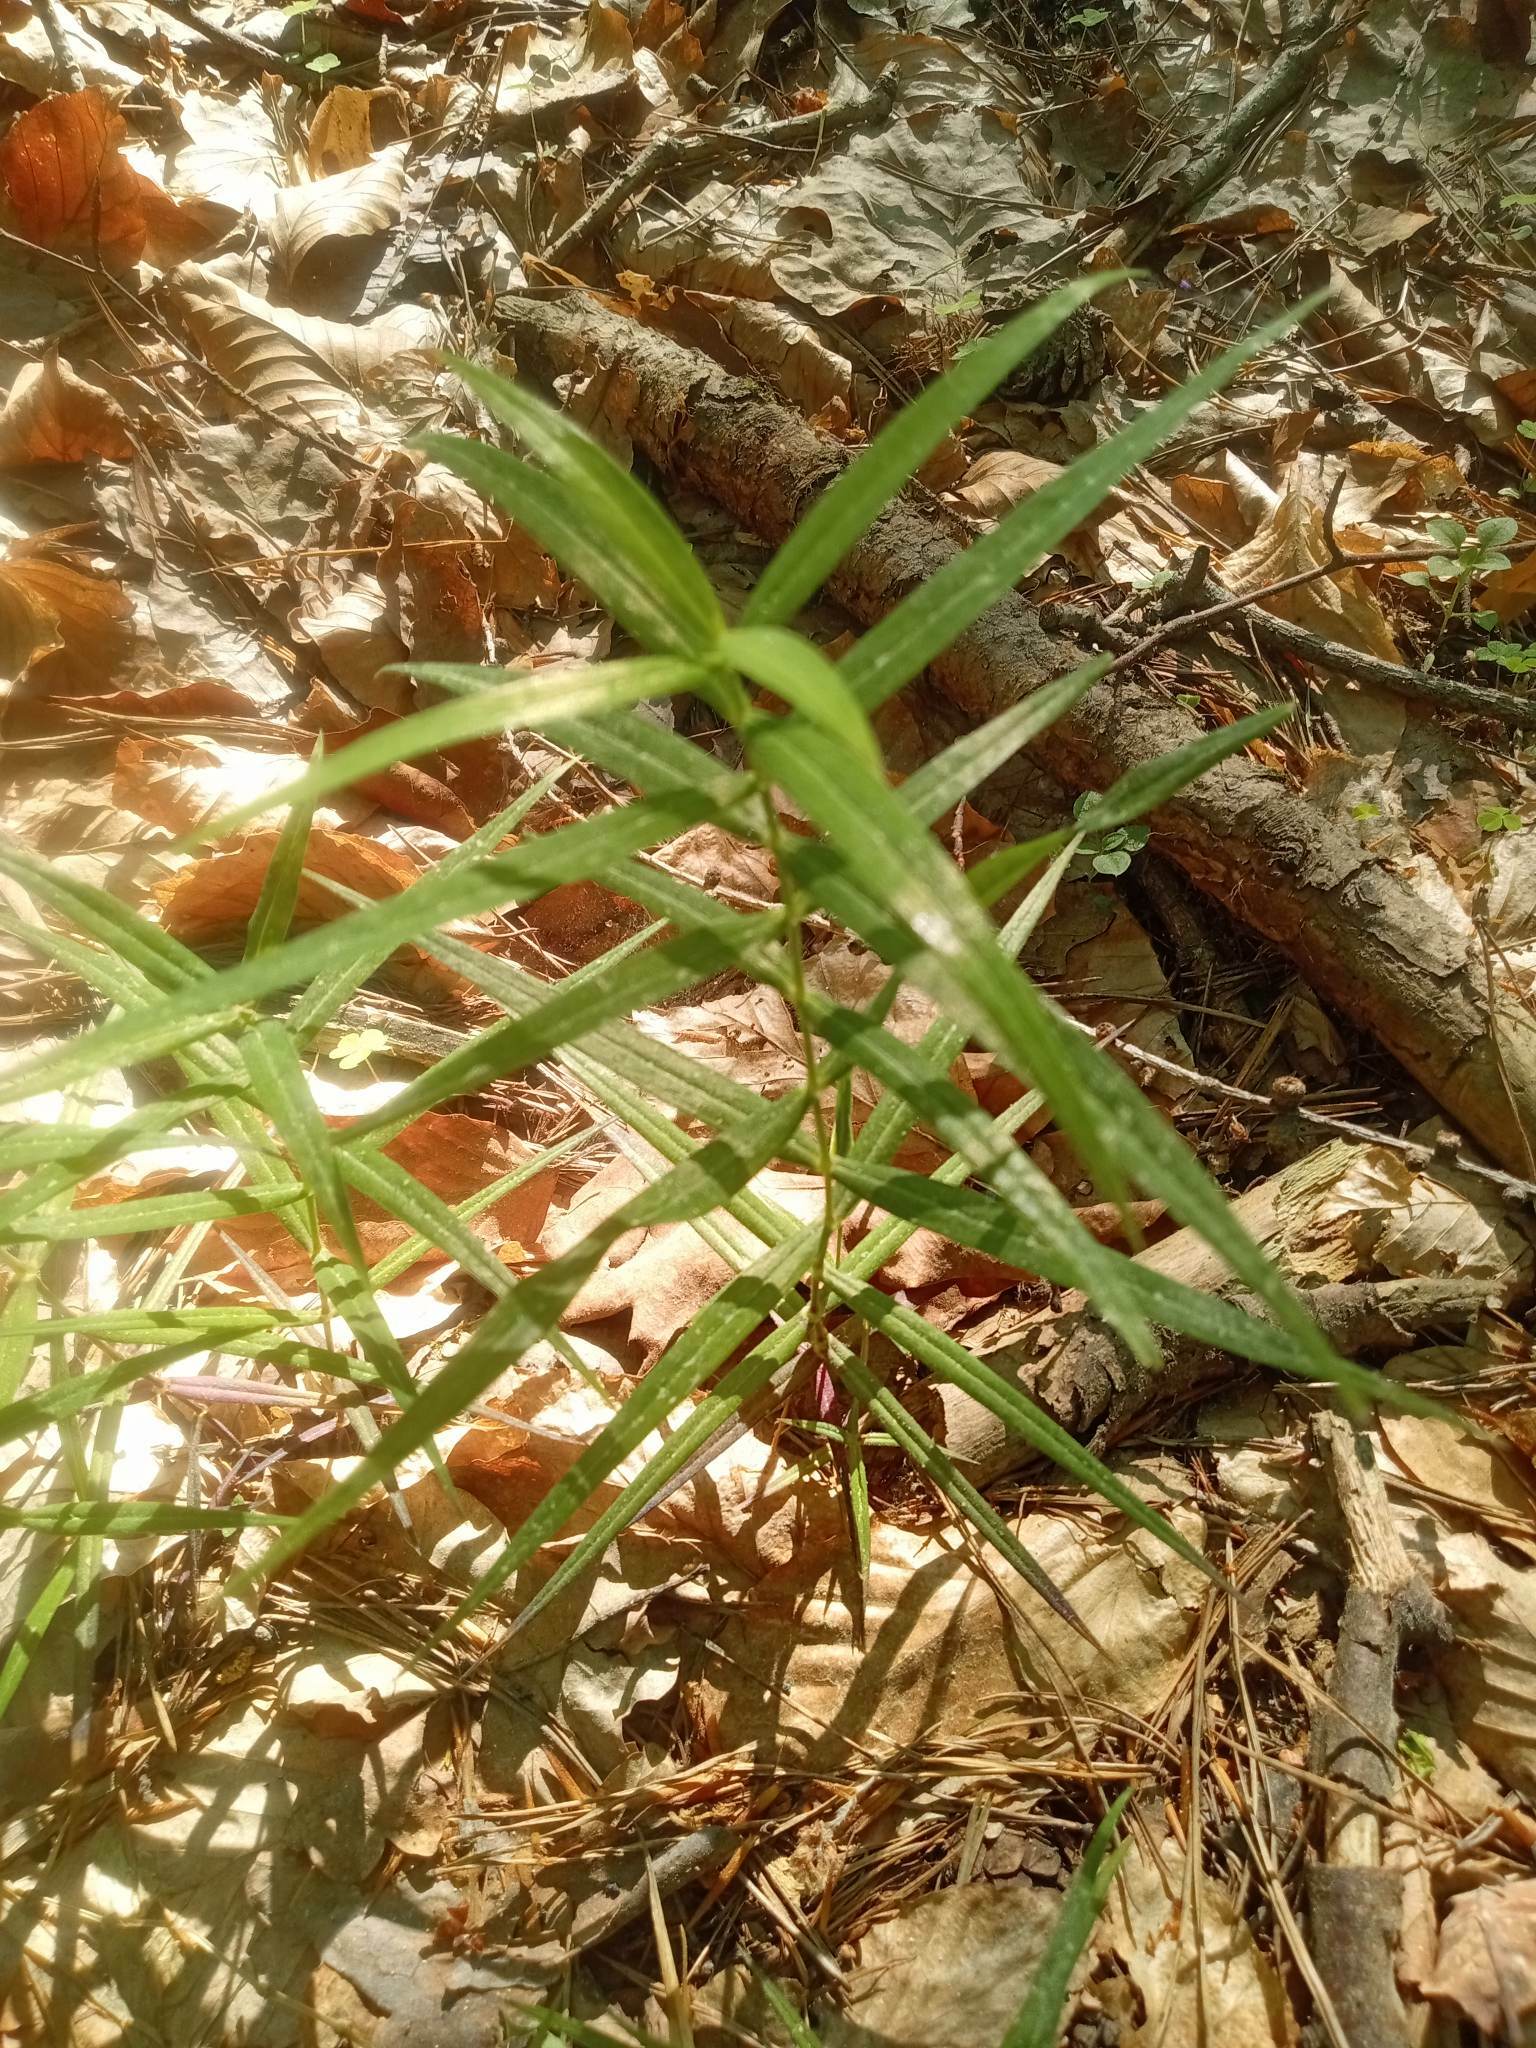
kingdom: Plantae
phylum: Tracheophyta
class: Magnoliopsida
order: Caryophyllales
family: Caryophyllaceae
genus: Rabelera
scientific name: Rabelera holostea
